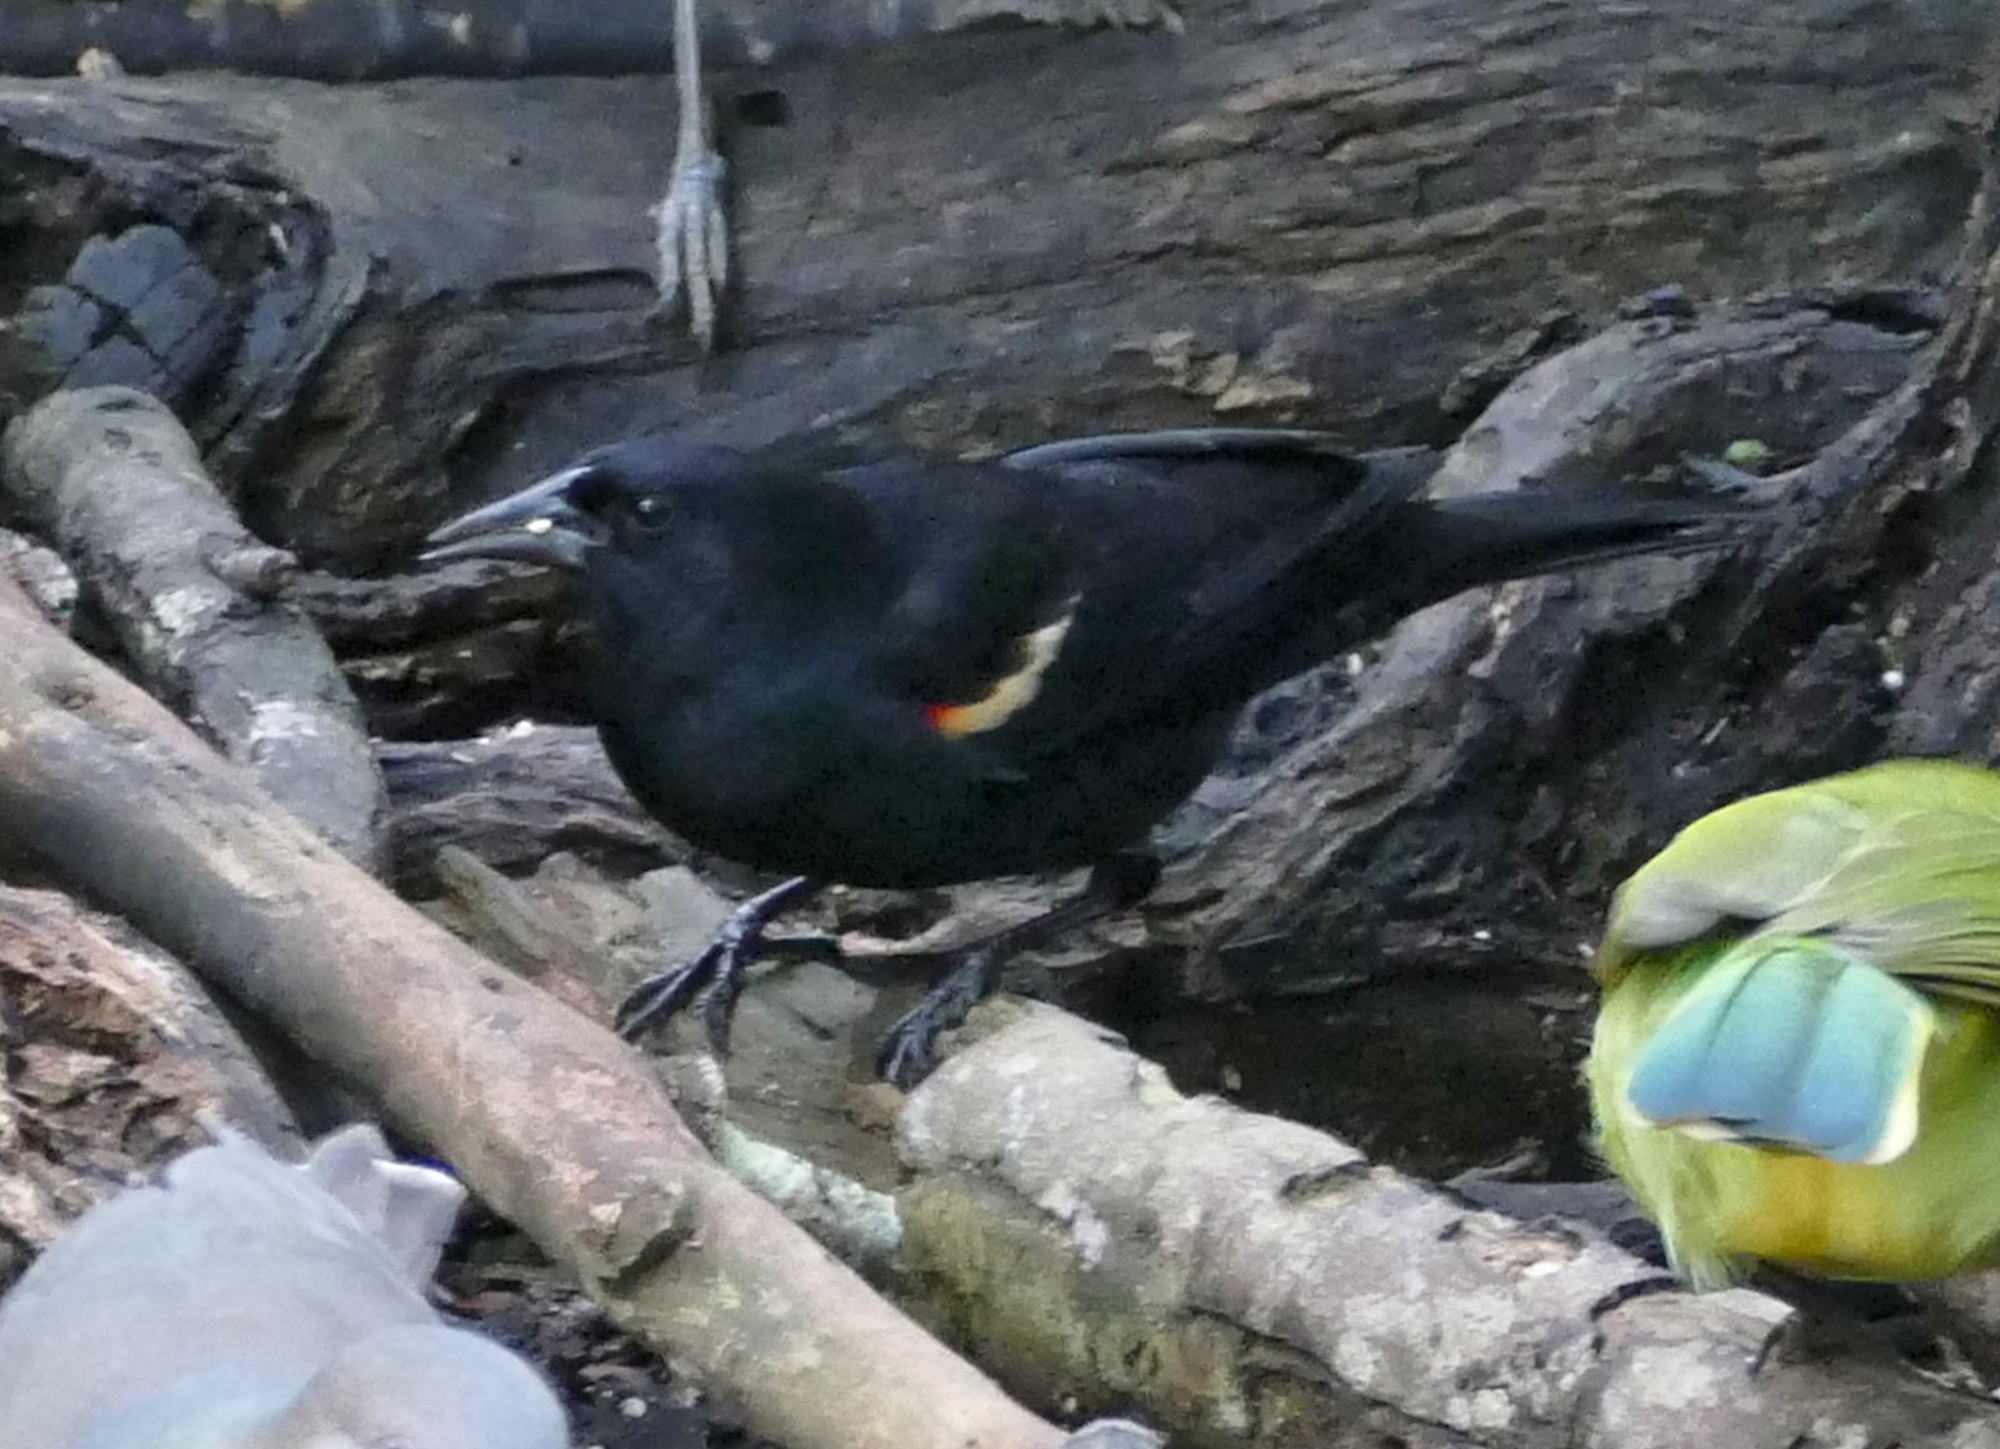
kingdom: Animalia
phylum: Chordata
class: Aves
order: Passeriformes
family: Icteridae
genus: Agelaius
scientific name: Agelaius phoeniceus
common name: Red-winged blackbird
